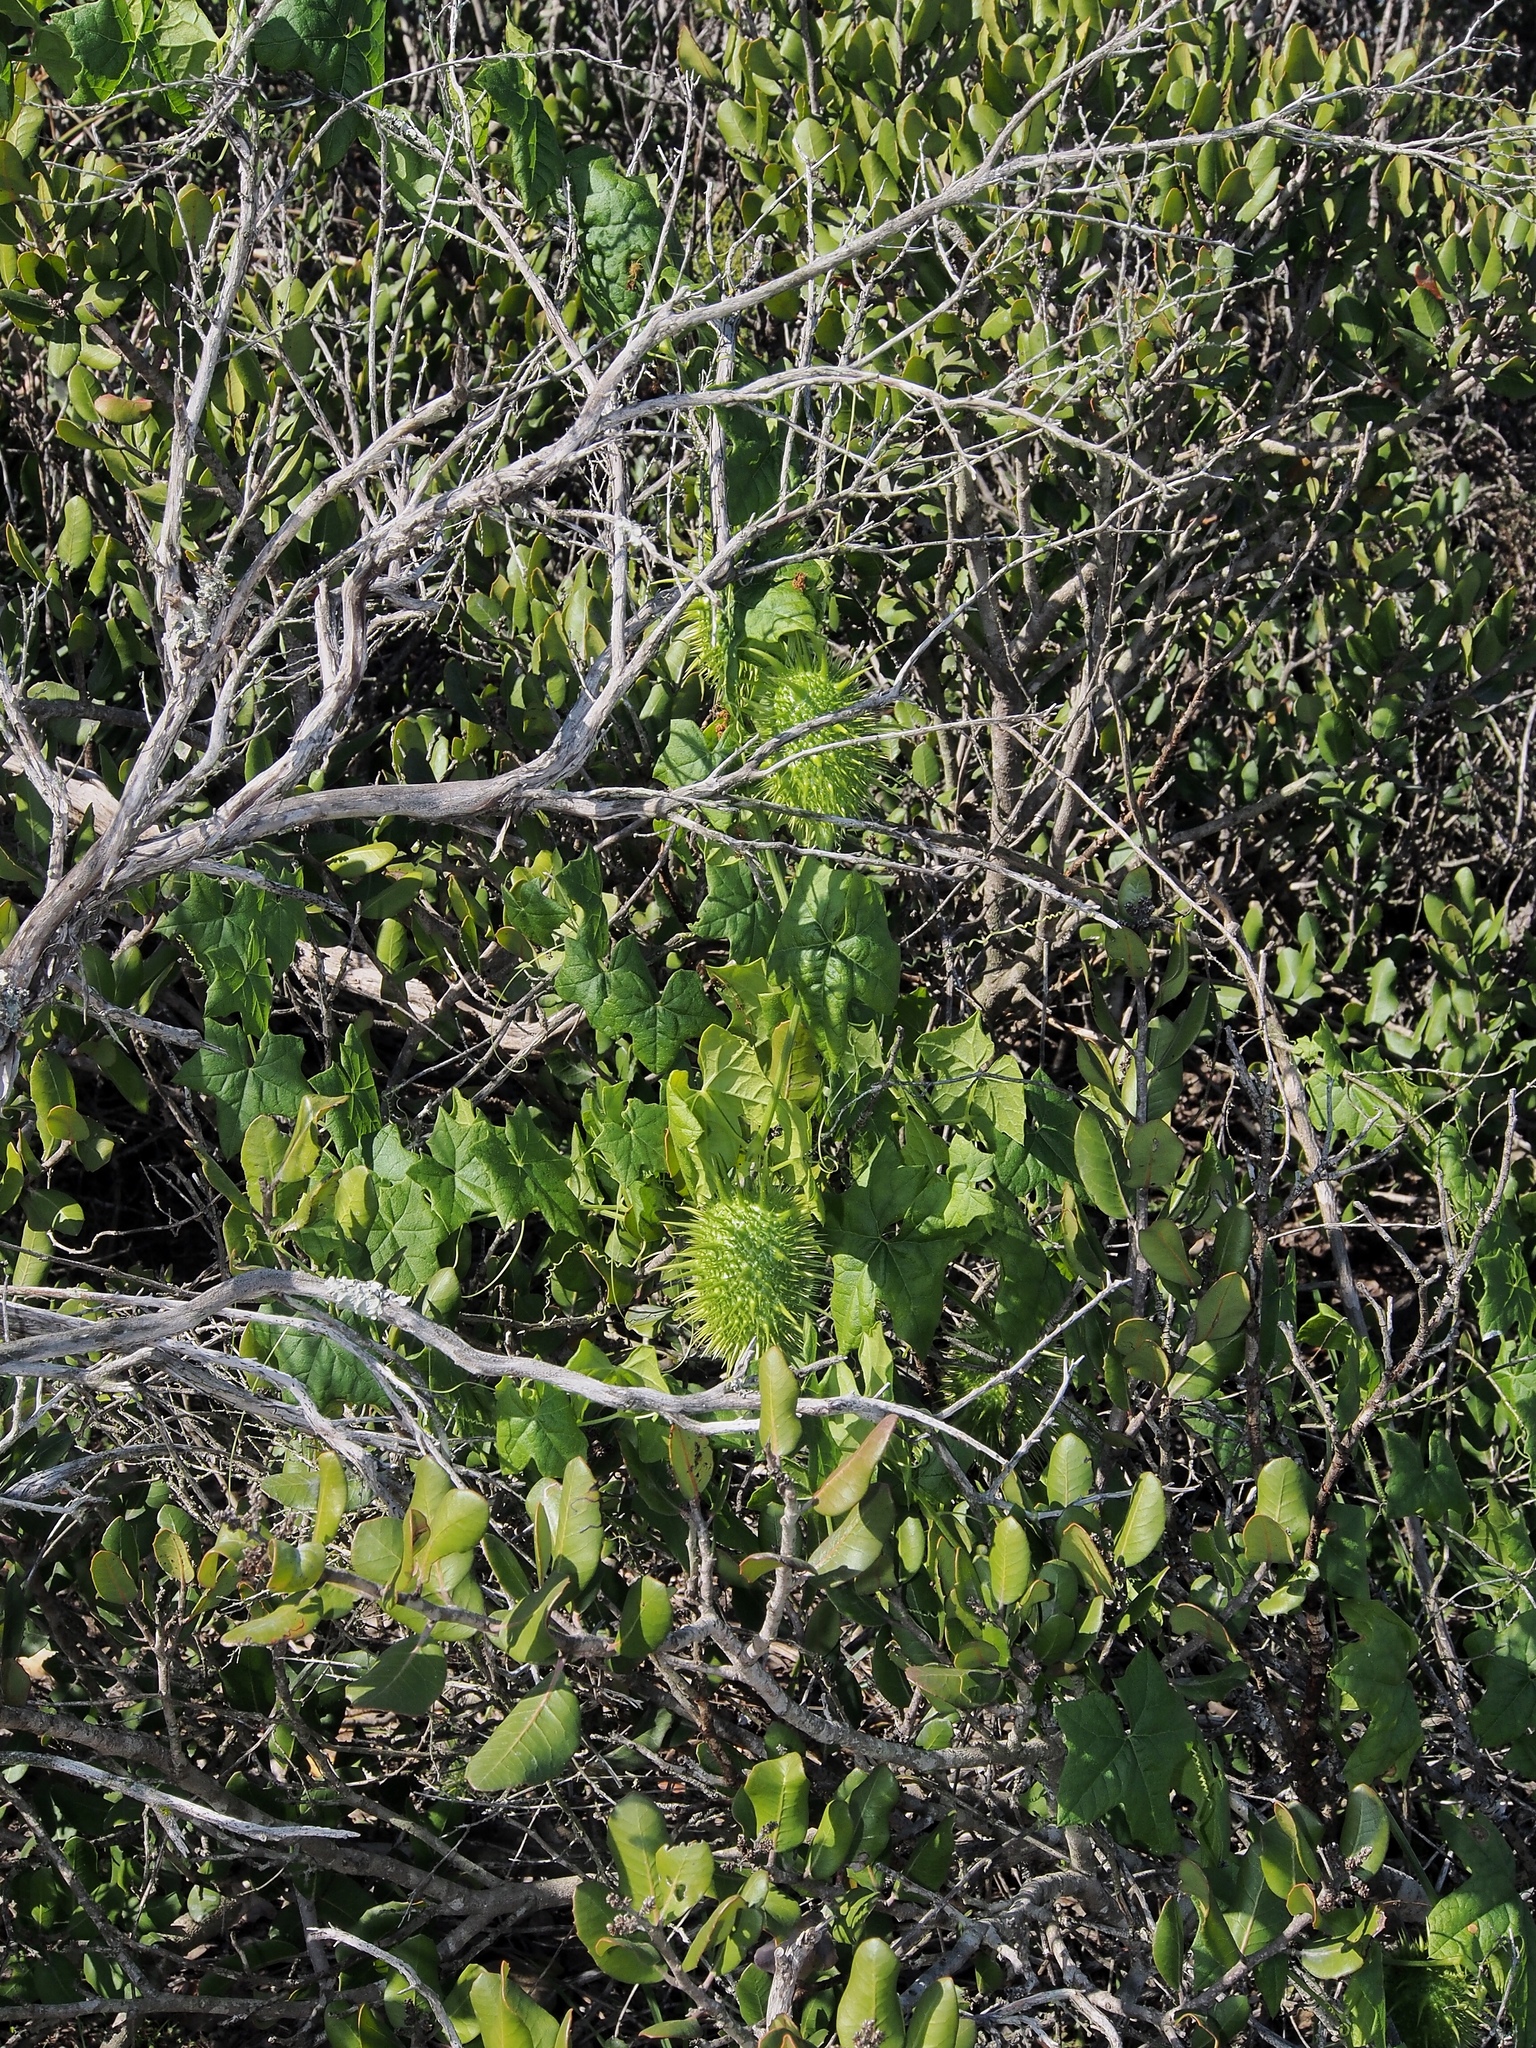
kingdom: Plantae
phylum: Tracheophyta
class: Magnoliopsida
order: Cucurbitales
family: Cucurbitaceae
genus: Marah
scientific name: Marah macrocarpa
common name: Cucamonga manroot
